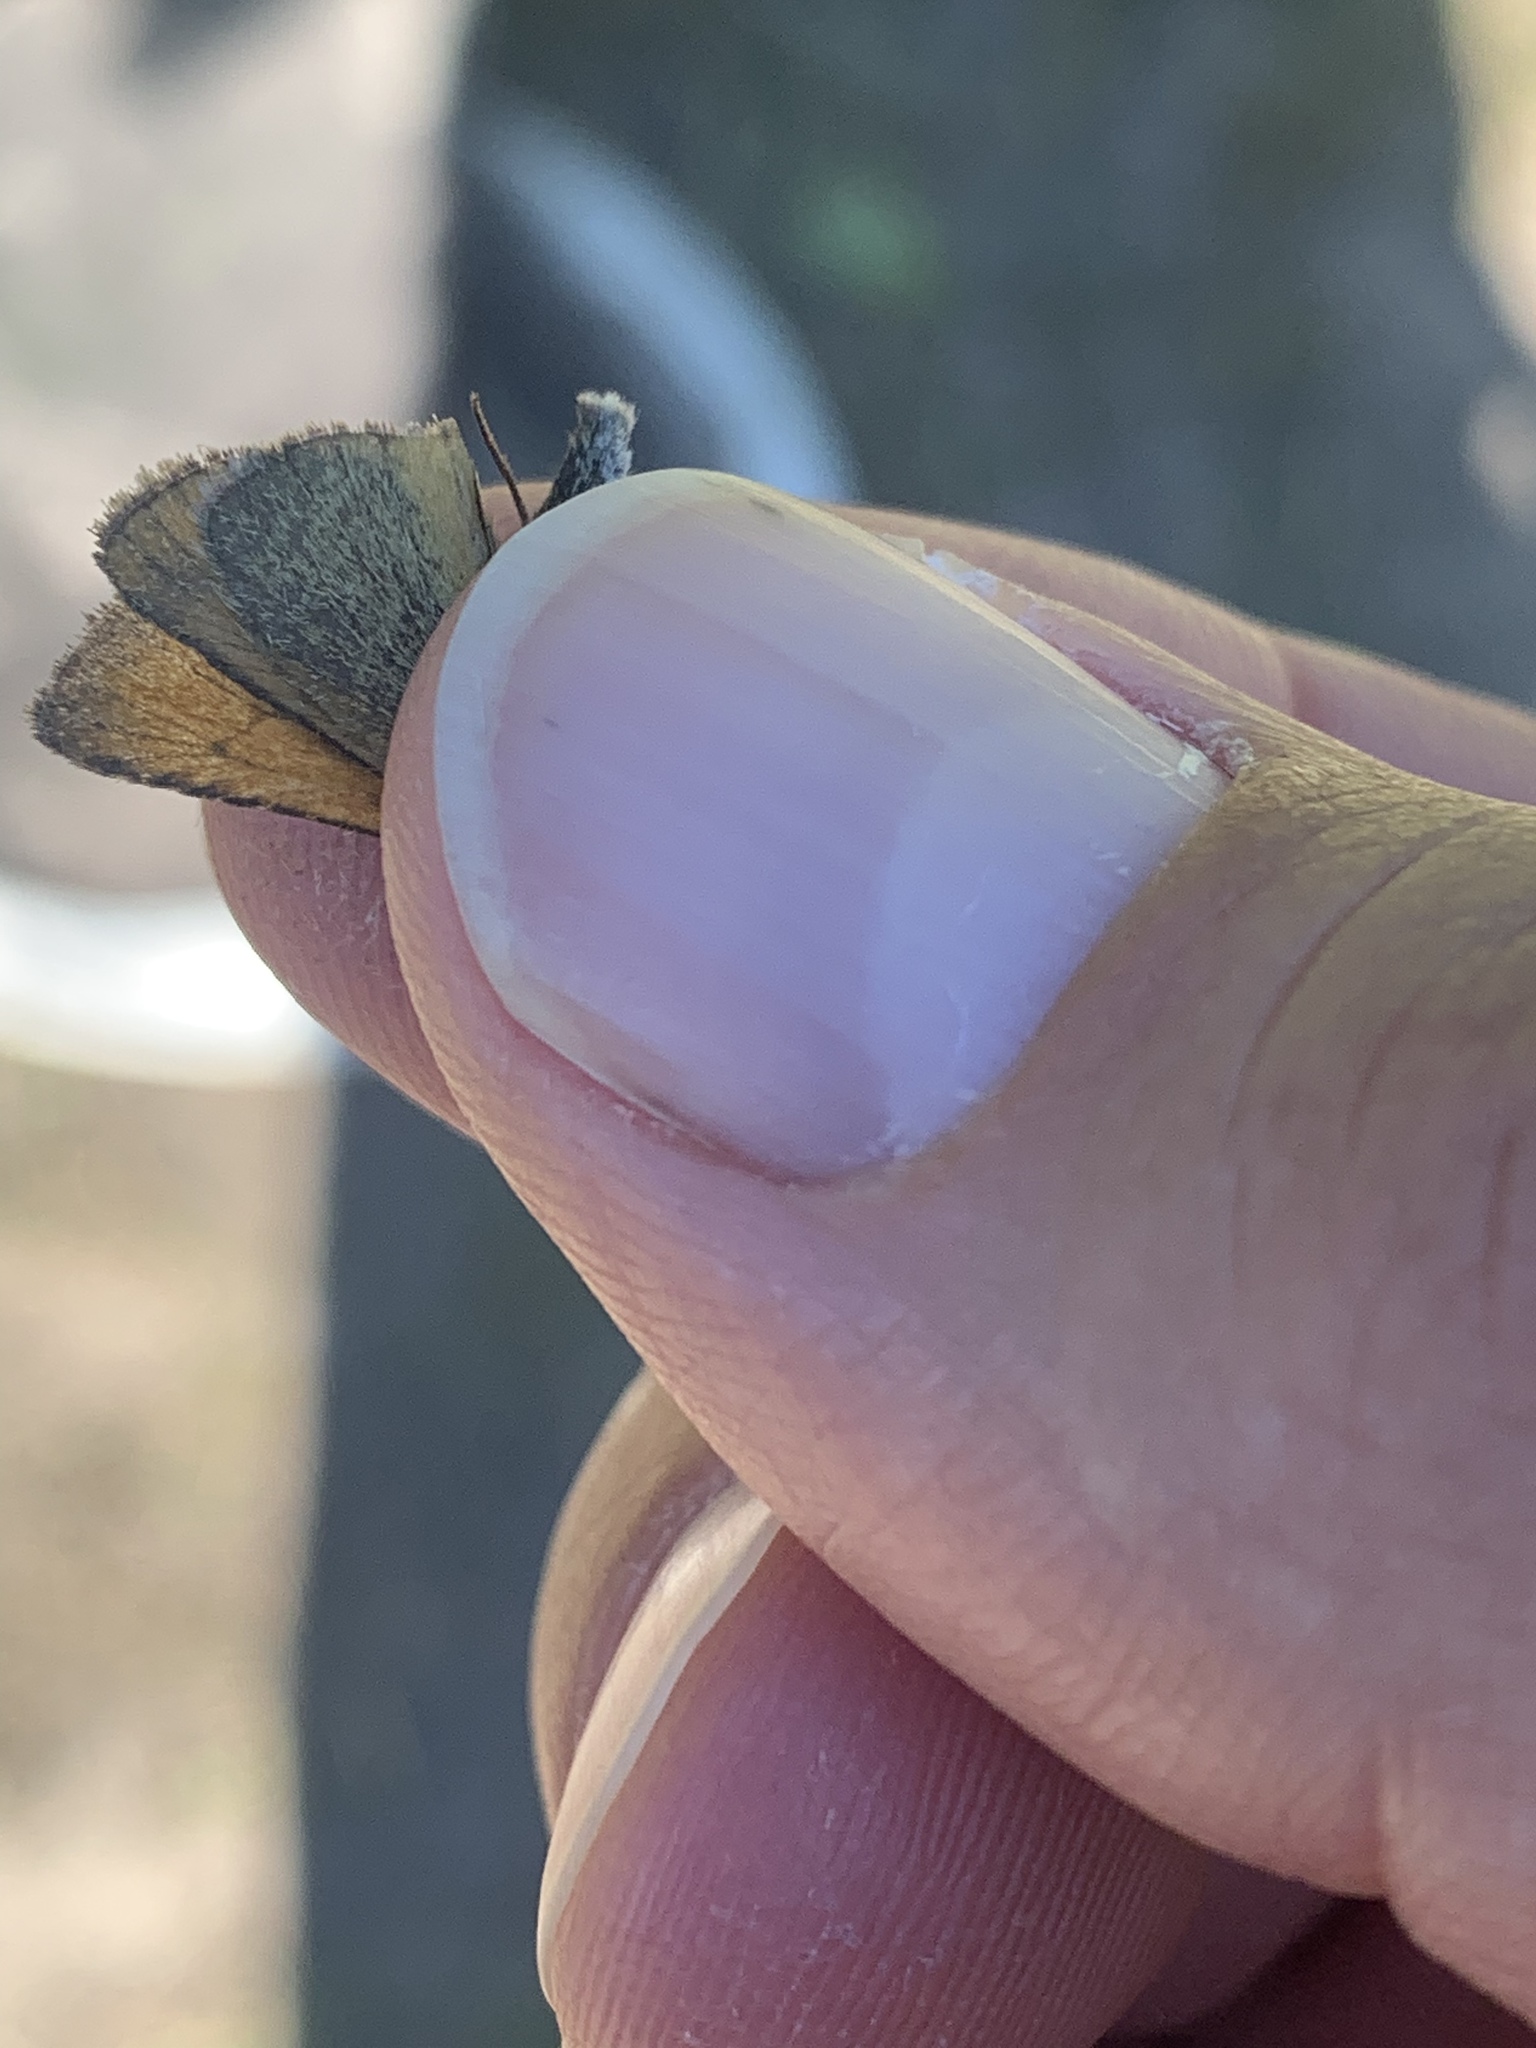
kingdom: Animalia
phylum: Arthropoda
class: Insecta
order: Lepidoptera
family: Hesperiidae
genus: Thymelicus
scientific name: Thymelicus lineola
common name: Essex skipper
